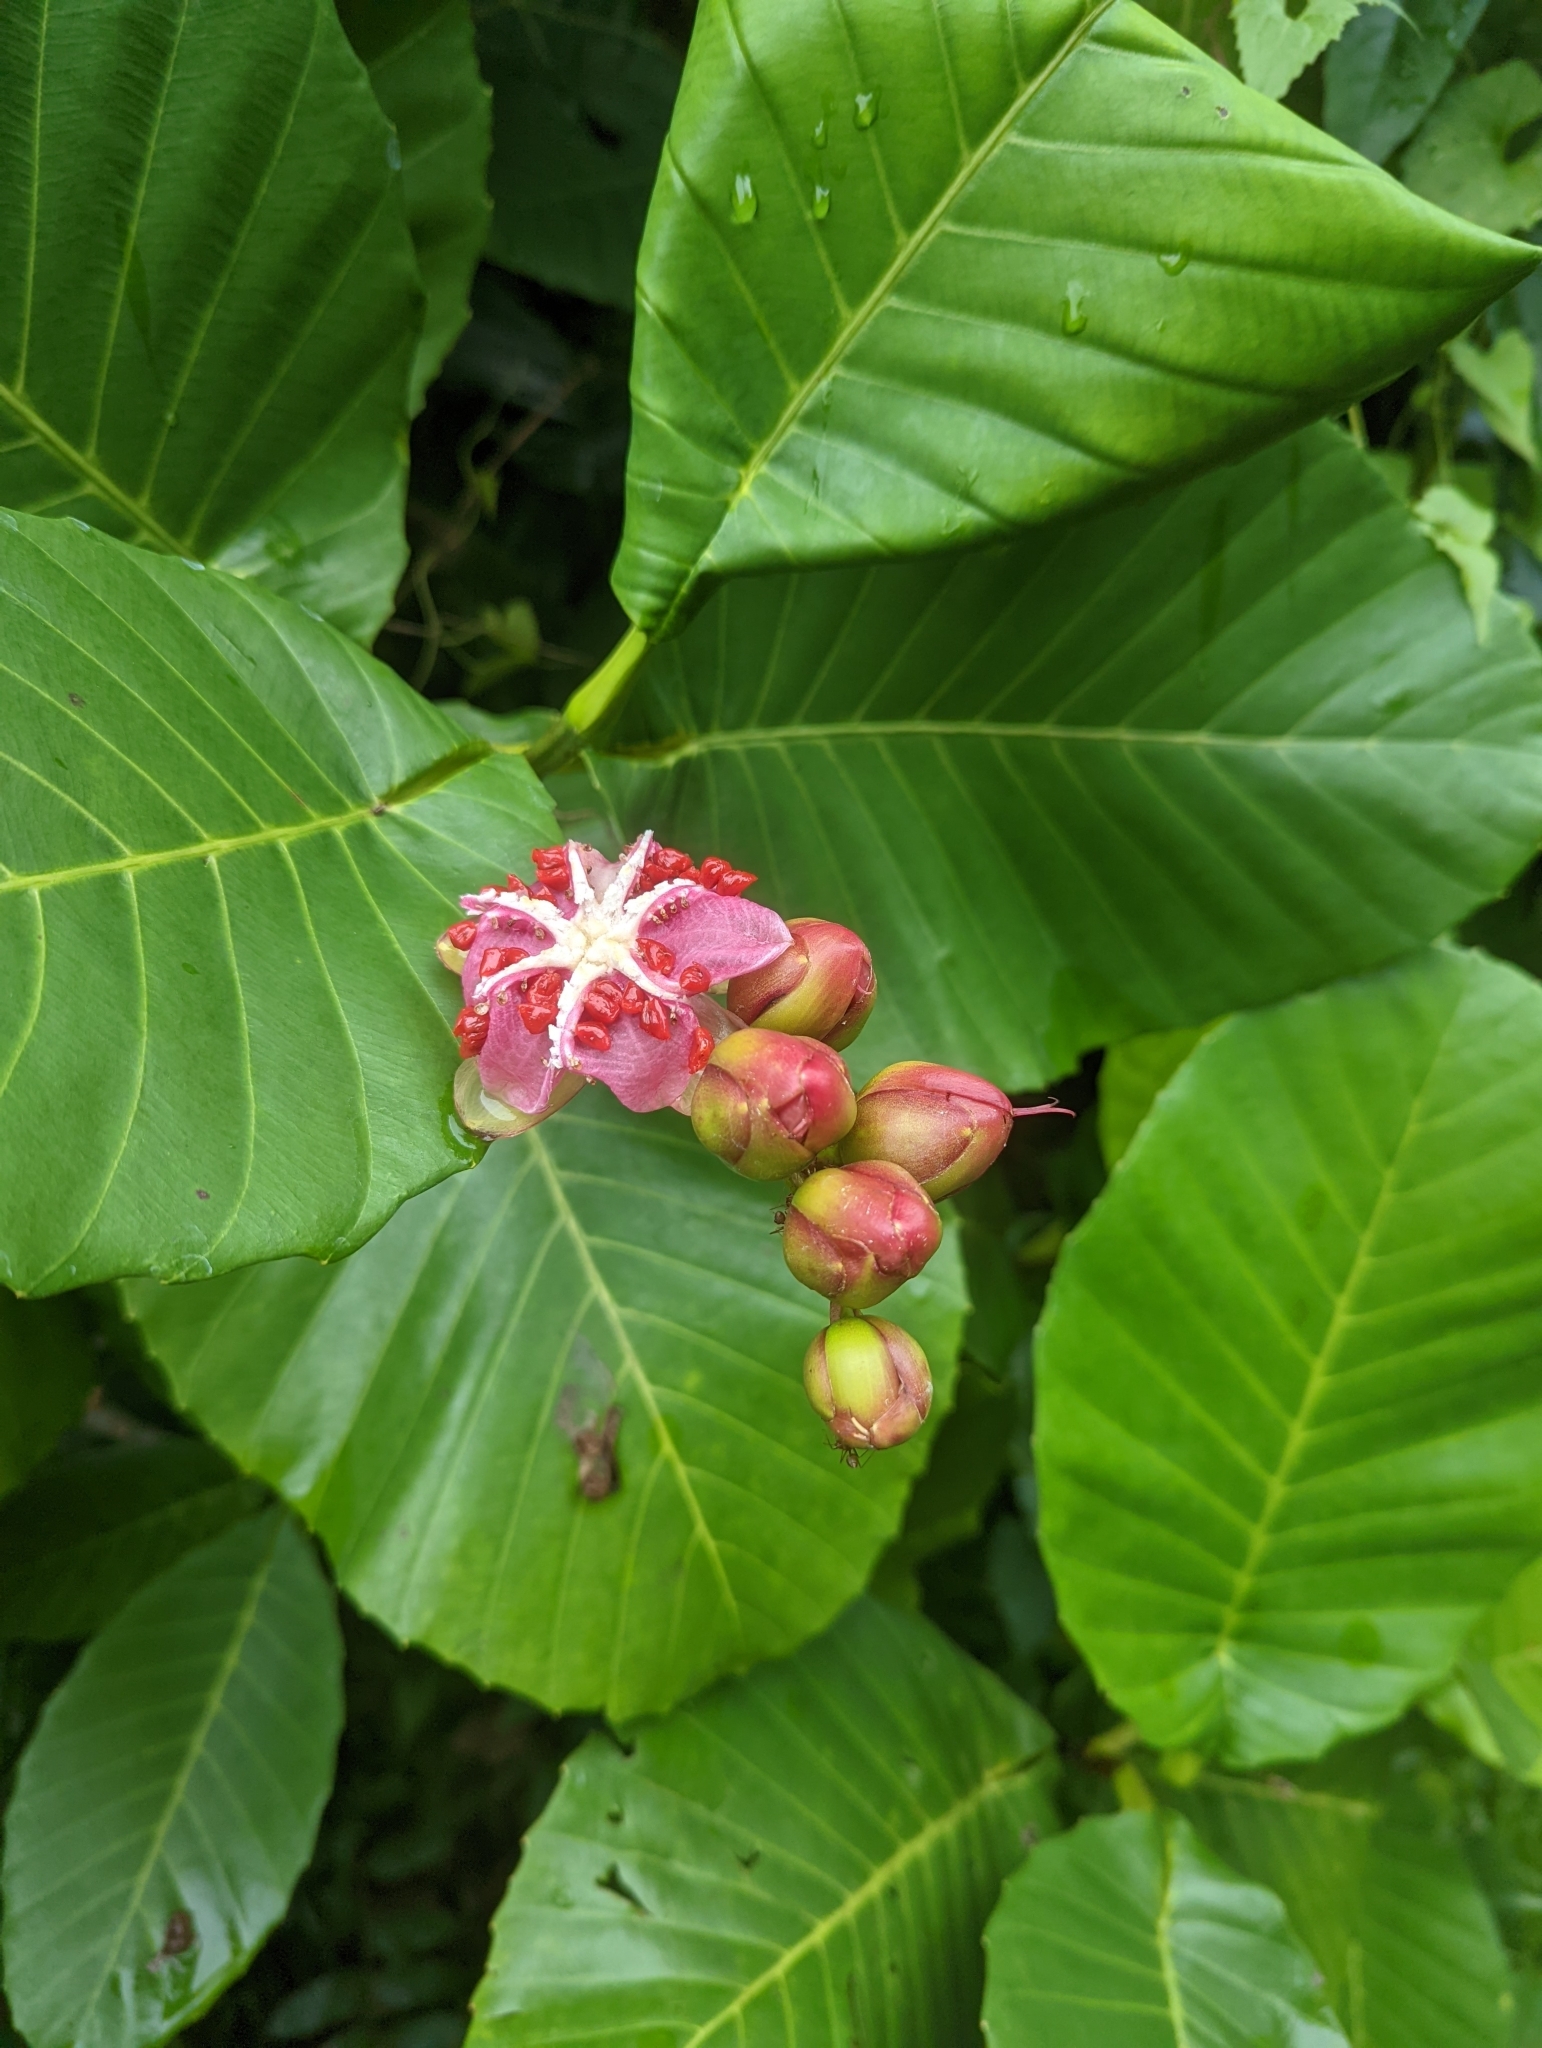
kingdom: Plantae
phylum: Tracheophyta
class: Magnoliopsida
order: Dilleniales
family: Dilleniaceae
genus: Dillenia
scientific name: Dillenia suffruticosa
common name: Shrubby dillenia
